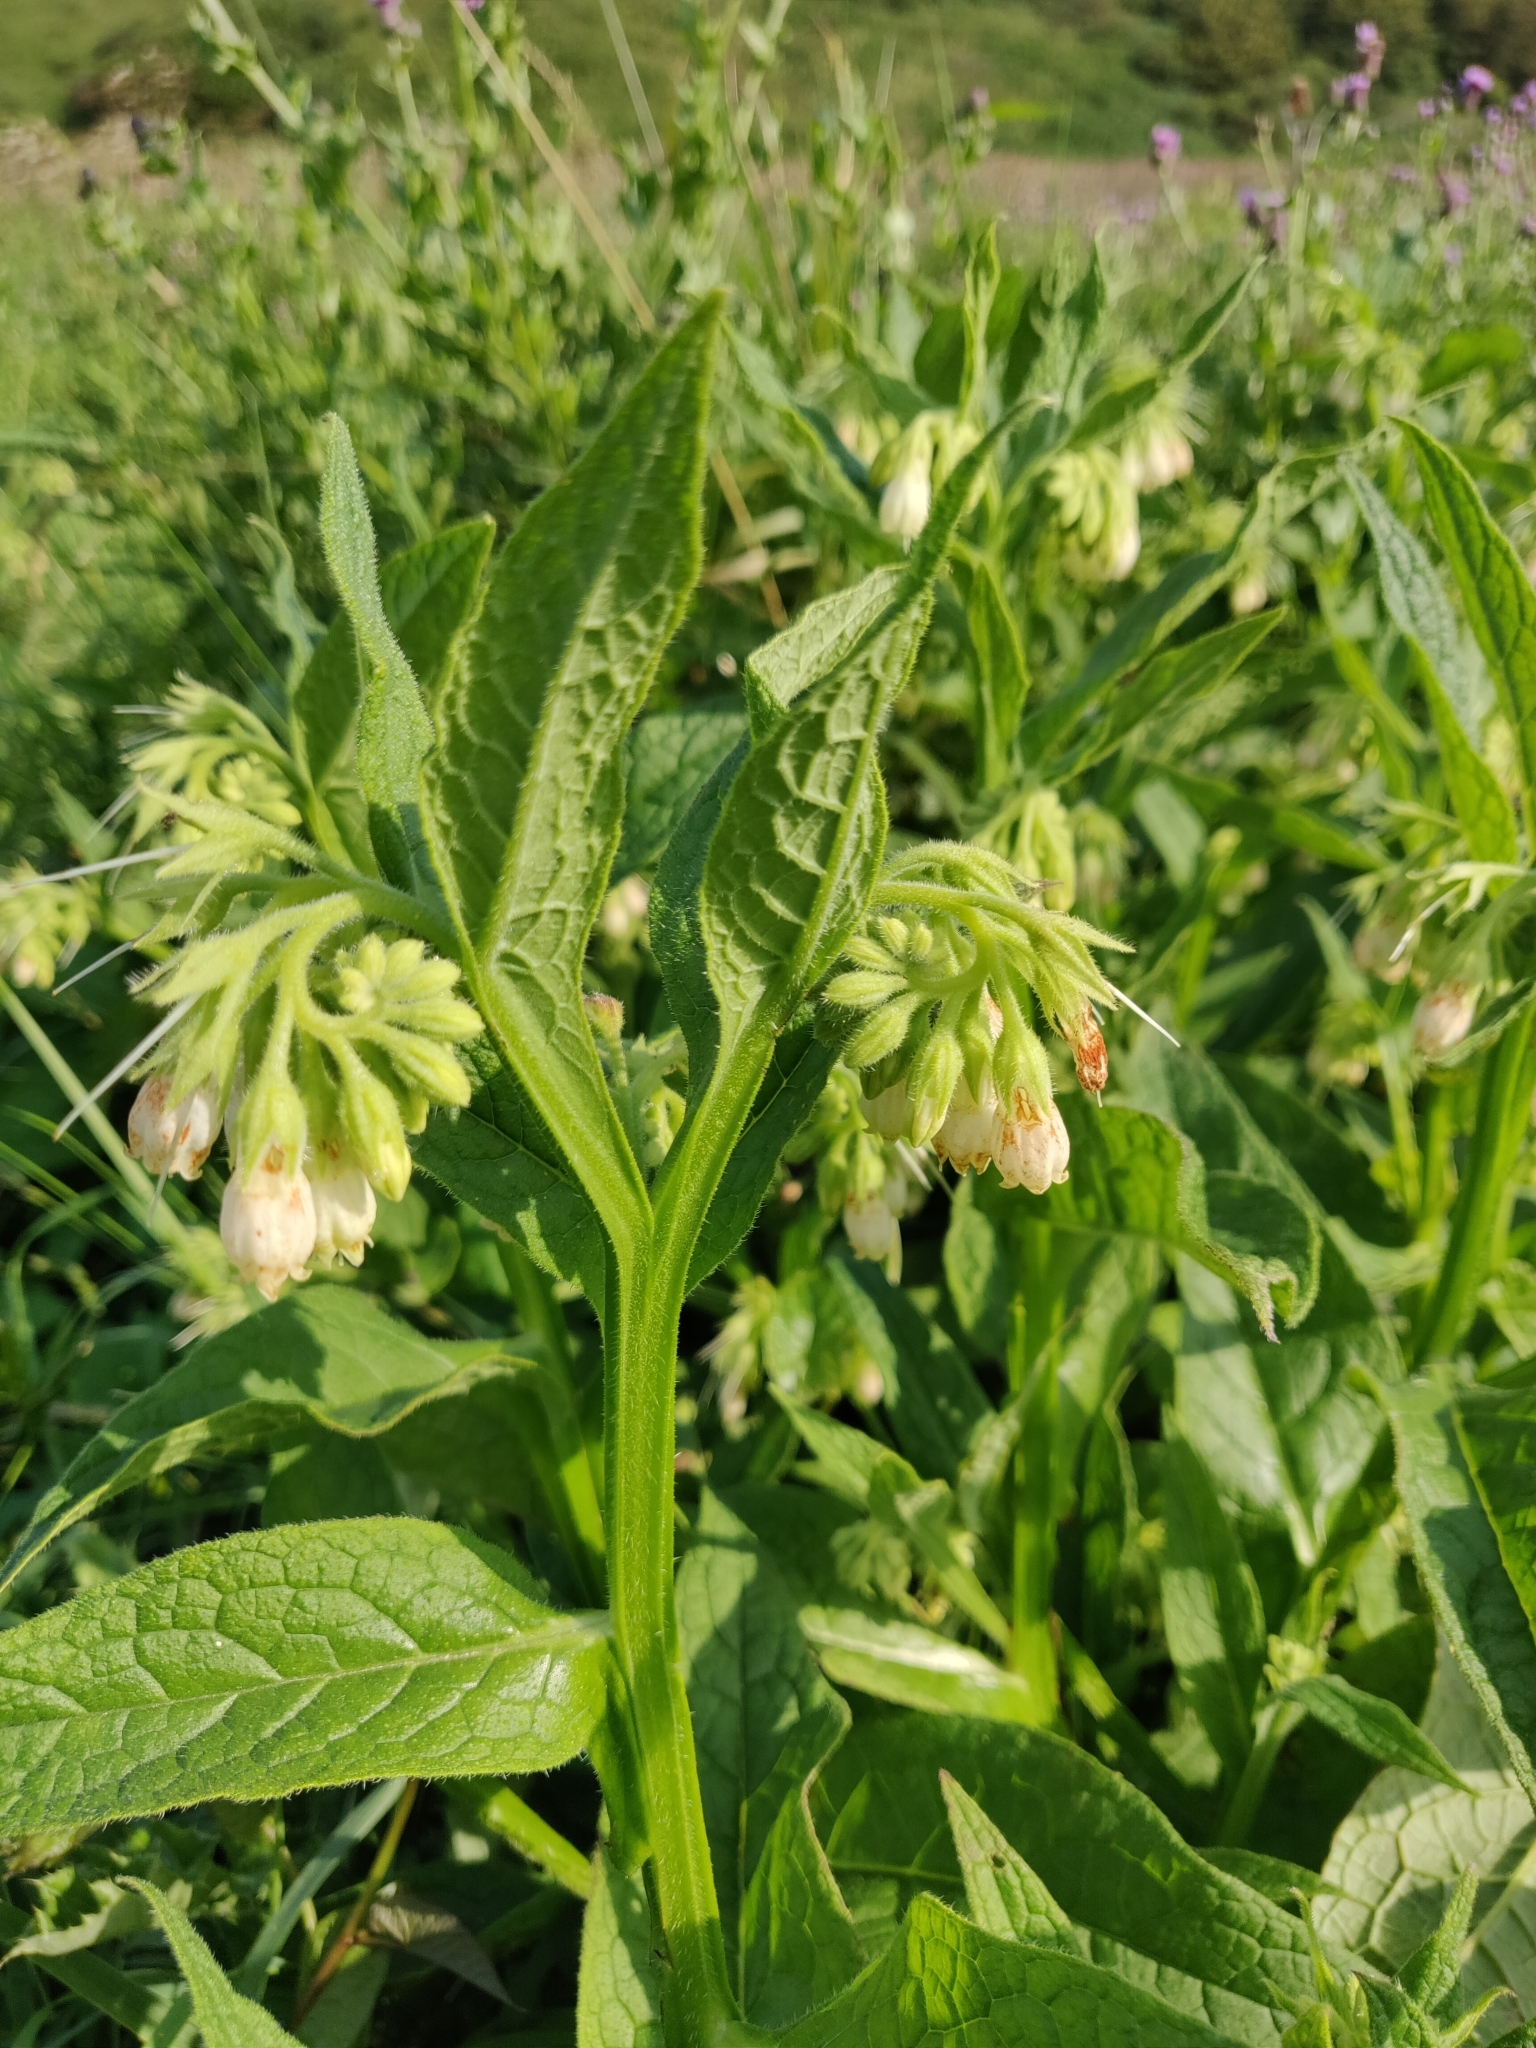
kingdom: Plantae
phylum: Tracheophyta
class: Magnoliopsida
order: Boraginales
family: Boraginaceae
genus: Symphytum
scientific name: Symphytum officinale
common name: Common comfrey
